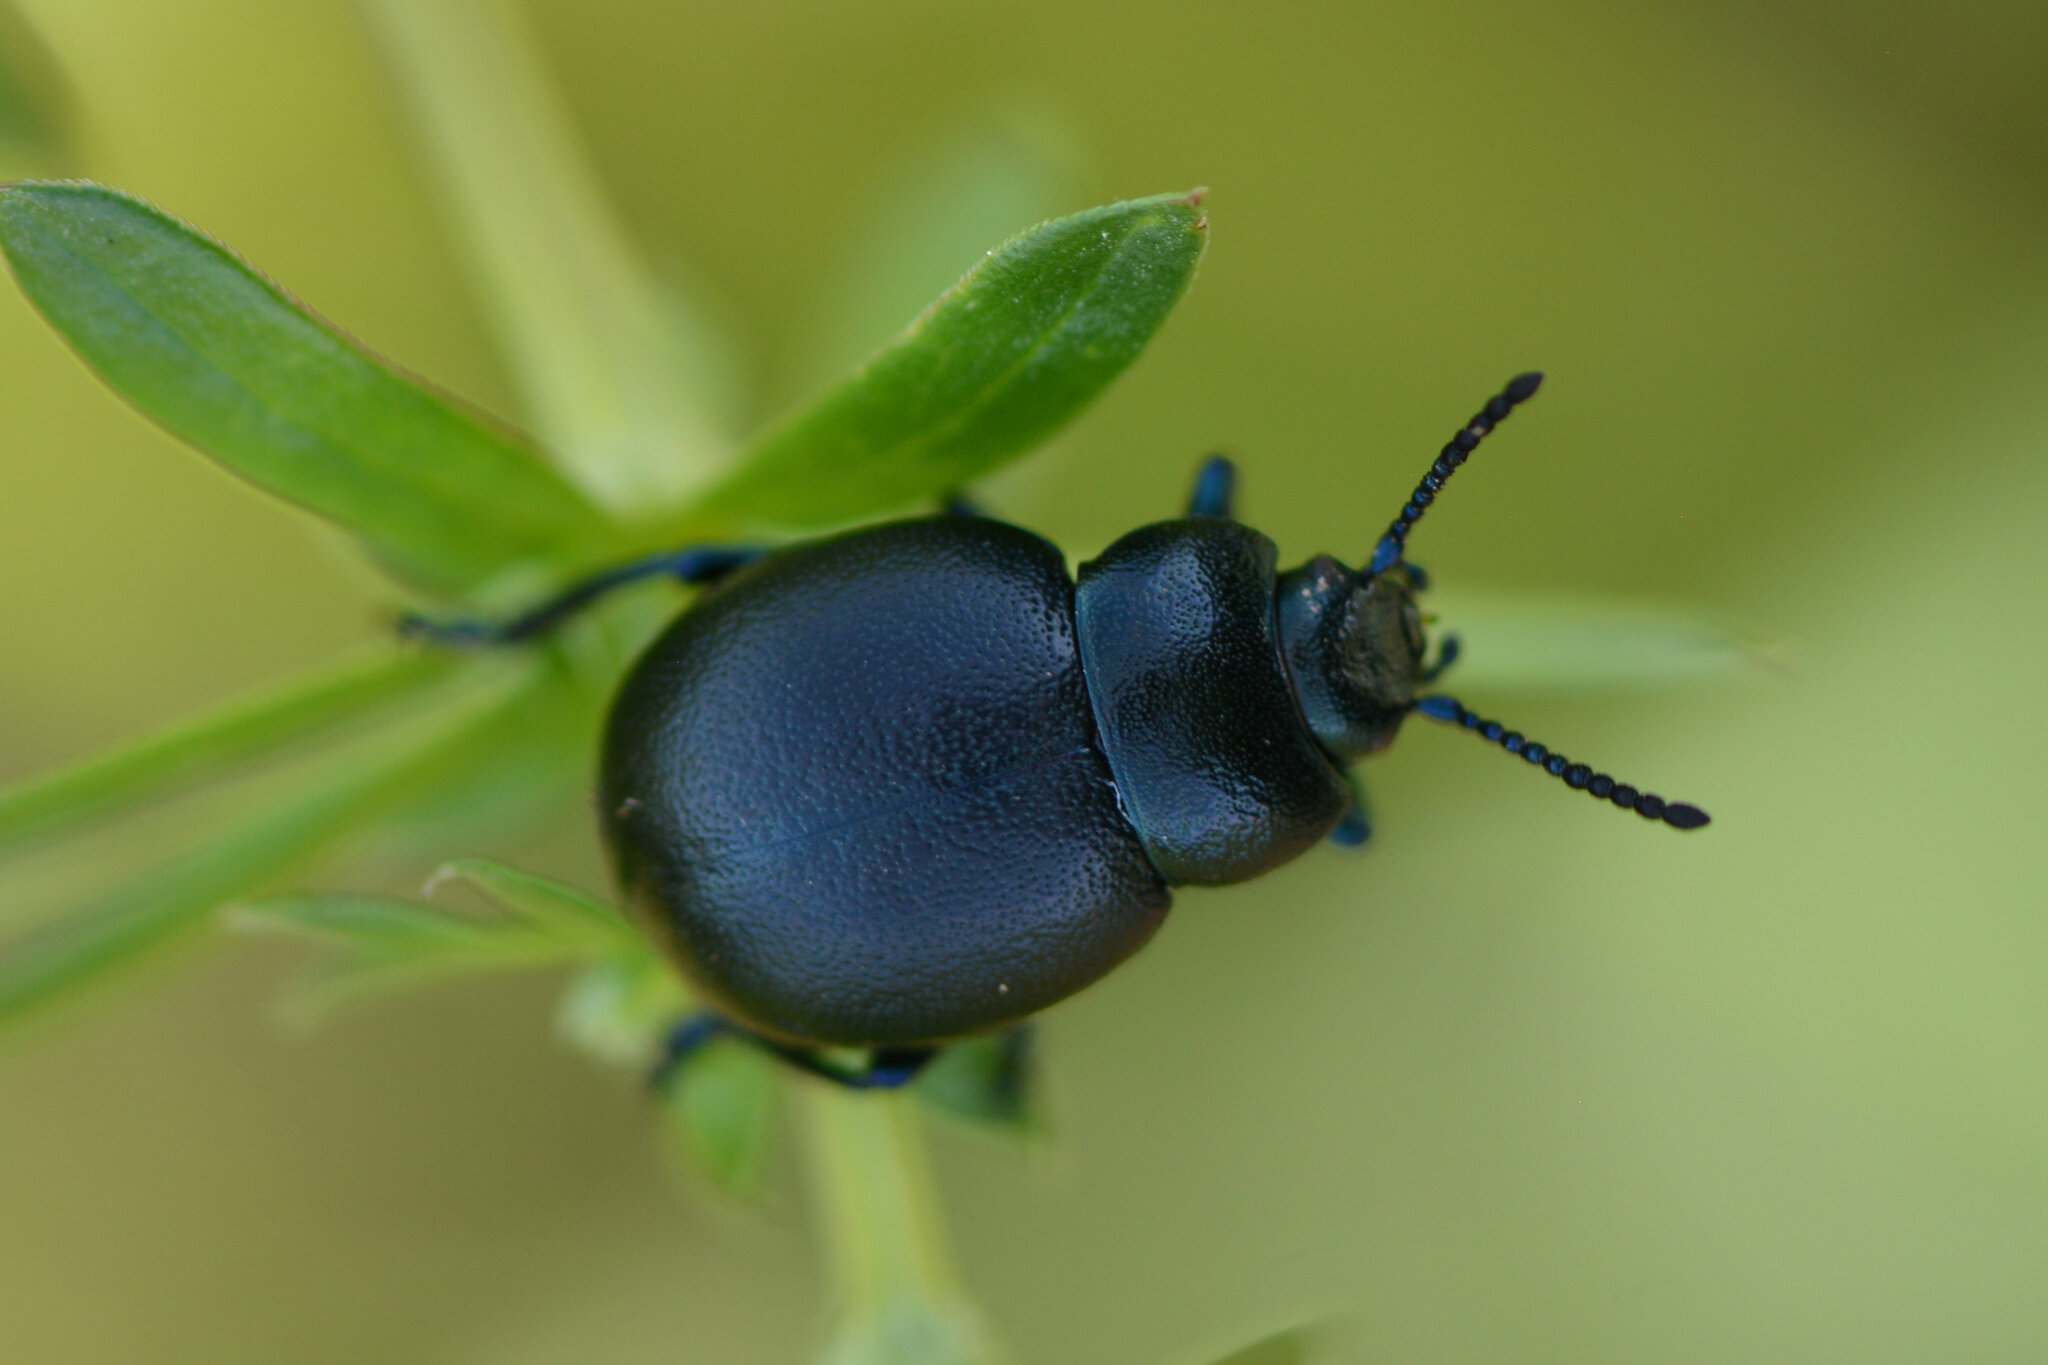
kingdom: Animalia
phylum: Arthropoda
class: Insecta
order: Coleoptera
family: Chrysomelidae
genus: Timarcha
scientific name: Timarcha goettingensis
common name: Small bloody-nosed beetle
